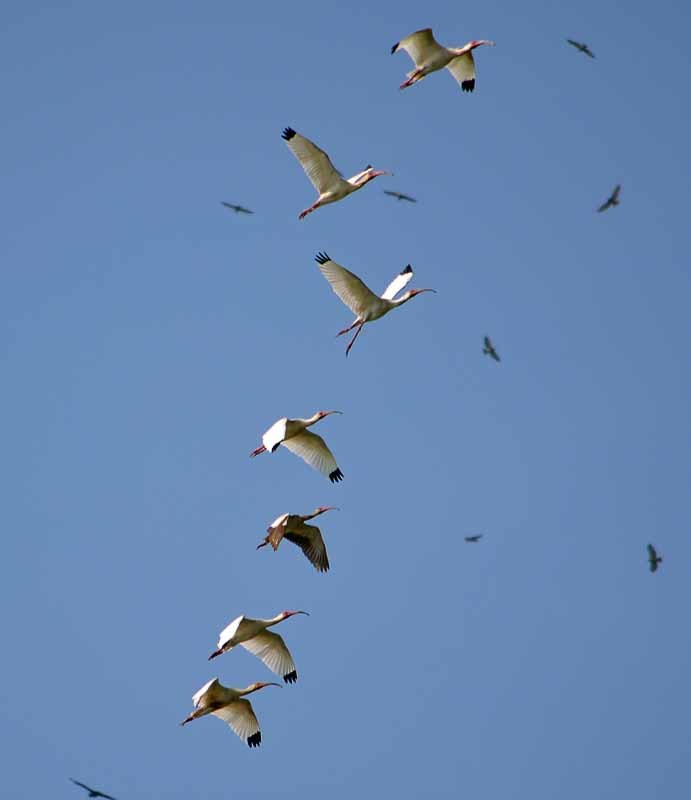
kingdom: Animalia
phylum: Chordata
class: Aves
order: Pelecaniformes
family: Threskiornithidae
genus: Eudocimus
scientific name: Eudocimus albus
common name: White ibis
